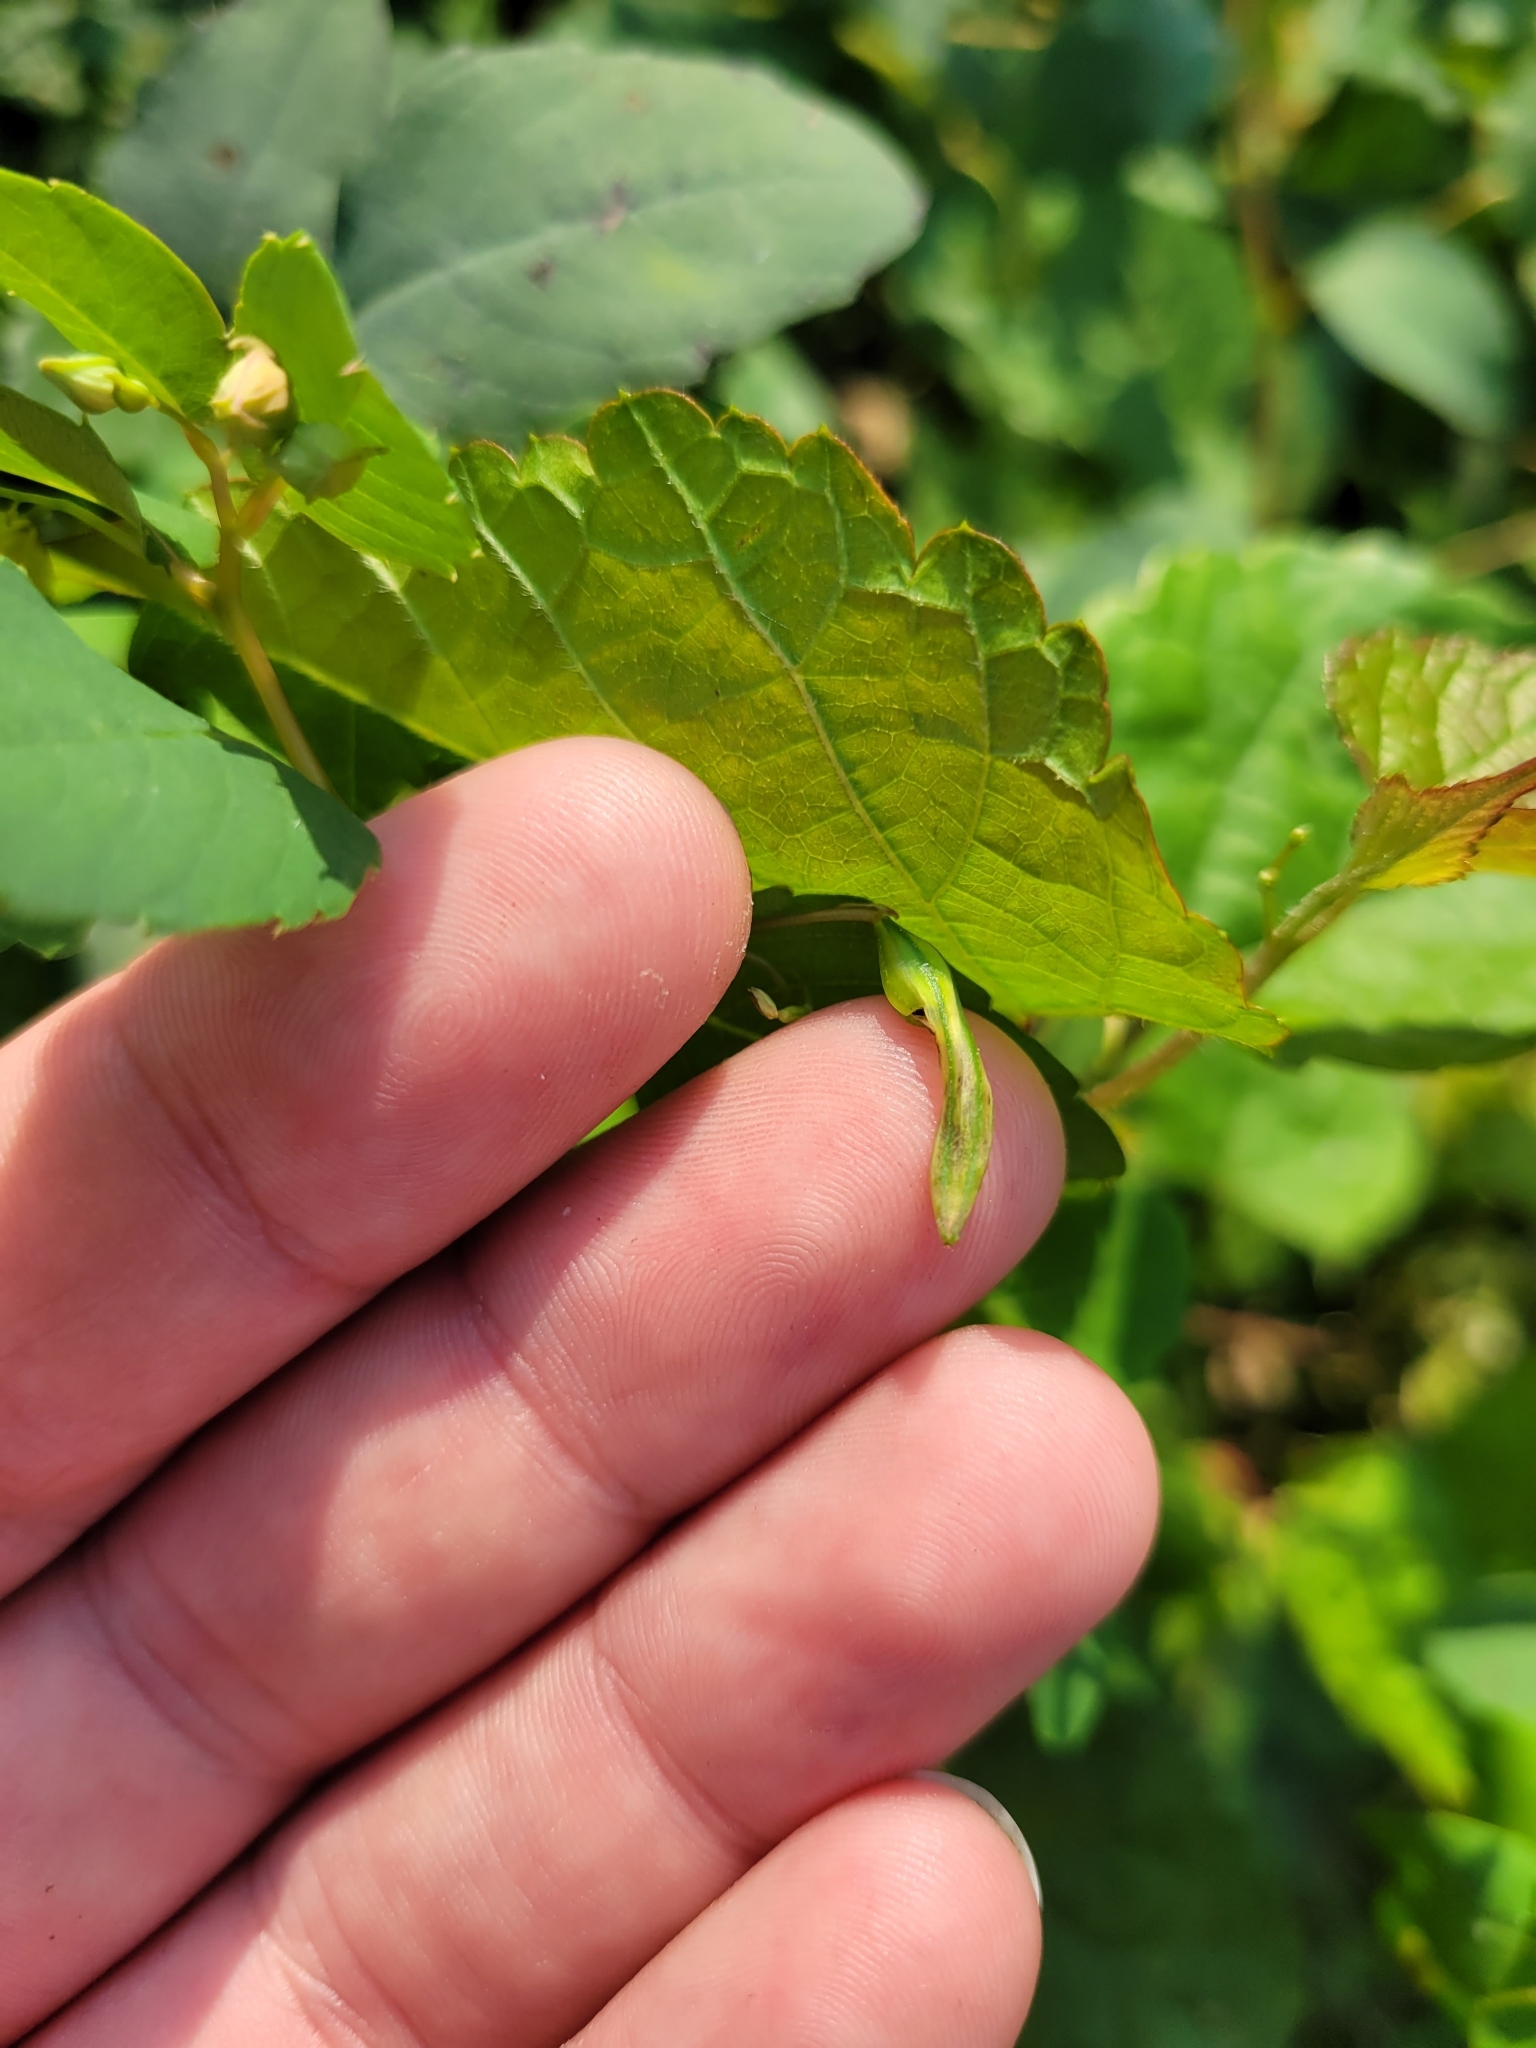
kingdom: Plantae
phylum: Tracheophyta
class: Magnoliopsida
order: Ericales
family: Balsaminaceae
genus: Impatiens
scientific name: Impatiens capensis
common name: Orange balsam
